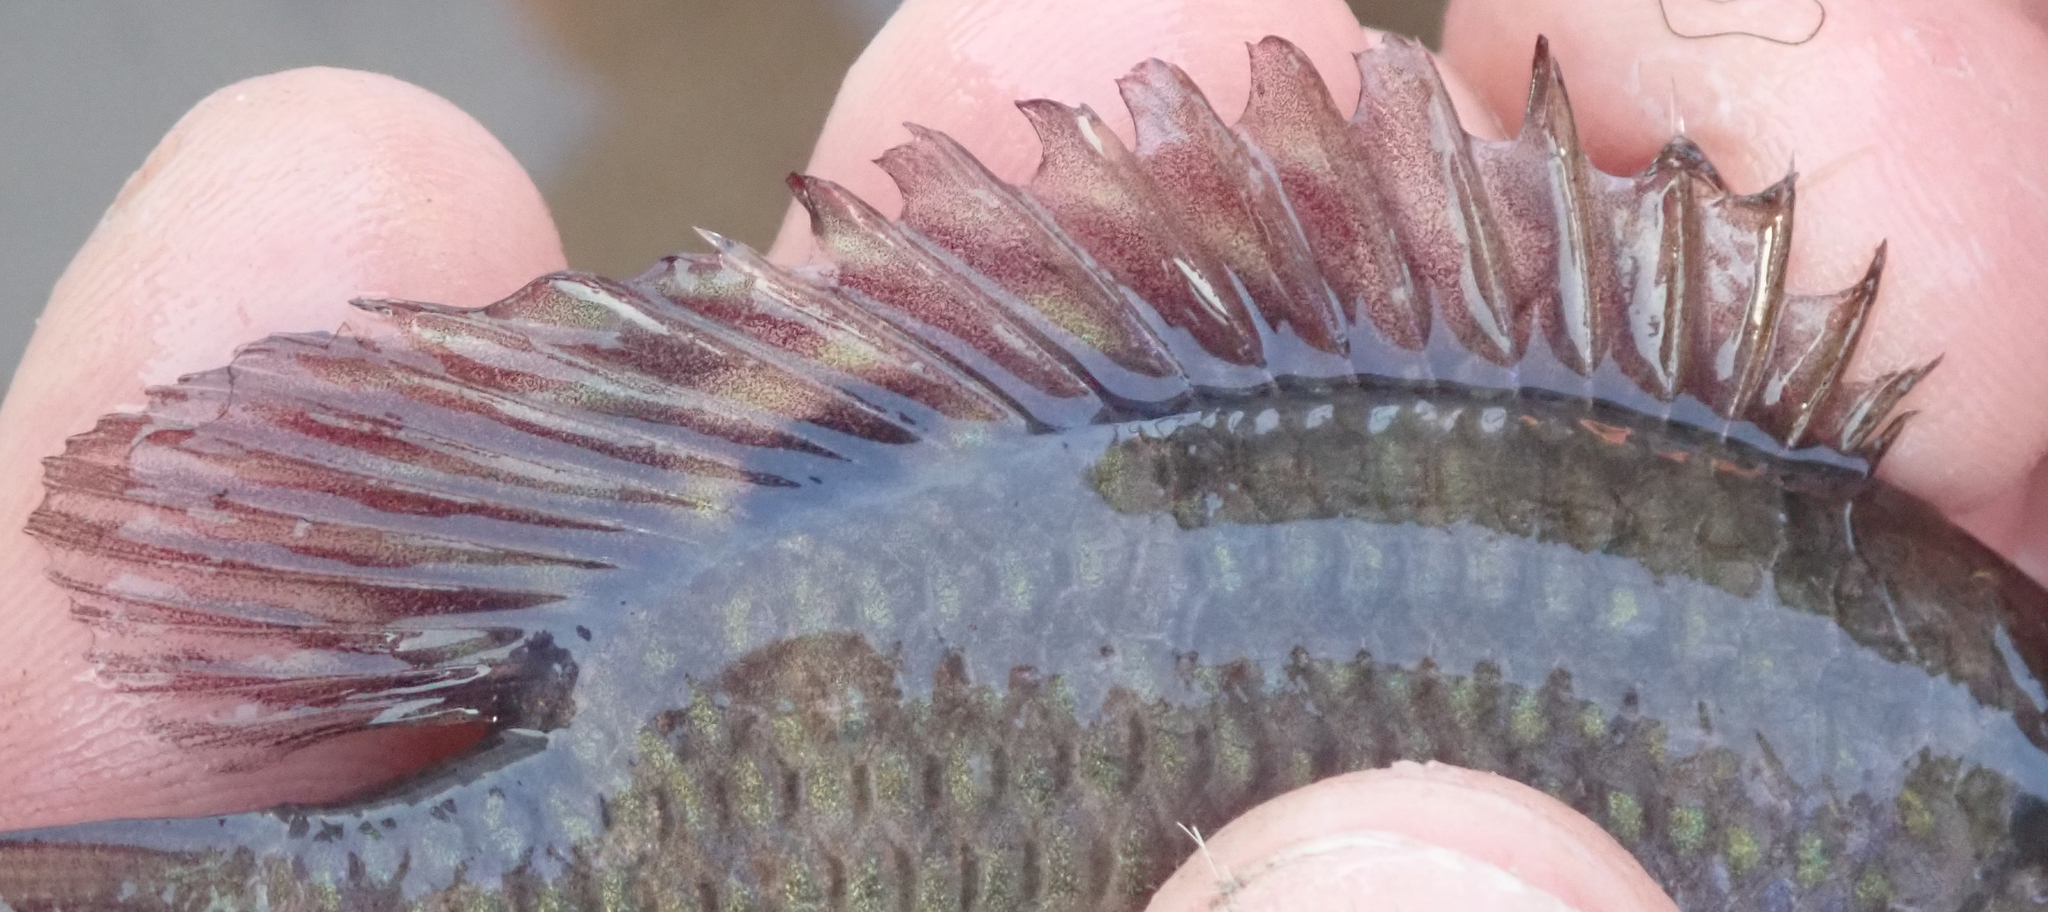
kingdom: Animalia
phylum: Chordata
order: Perciformes
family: Cichlidae
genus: Tilapia
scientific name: Tilapia sparrmanii
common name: Banded tilapia
